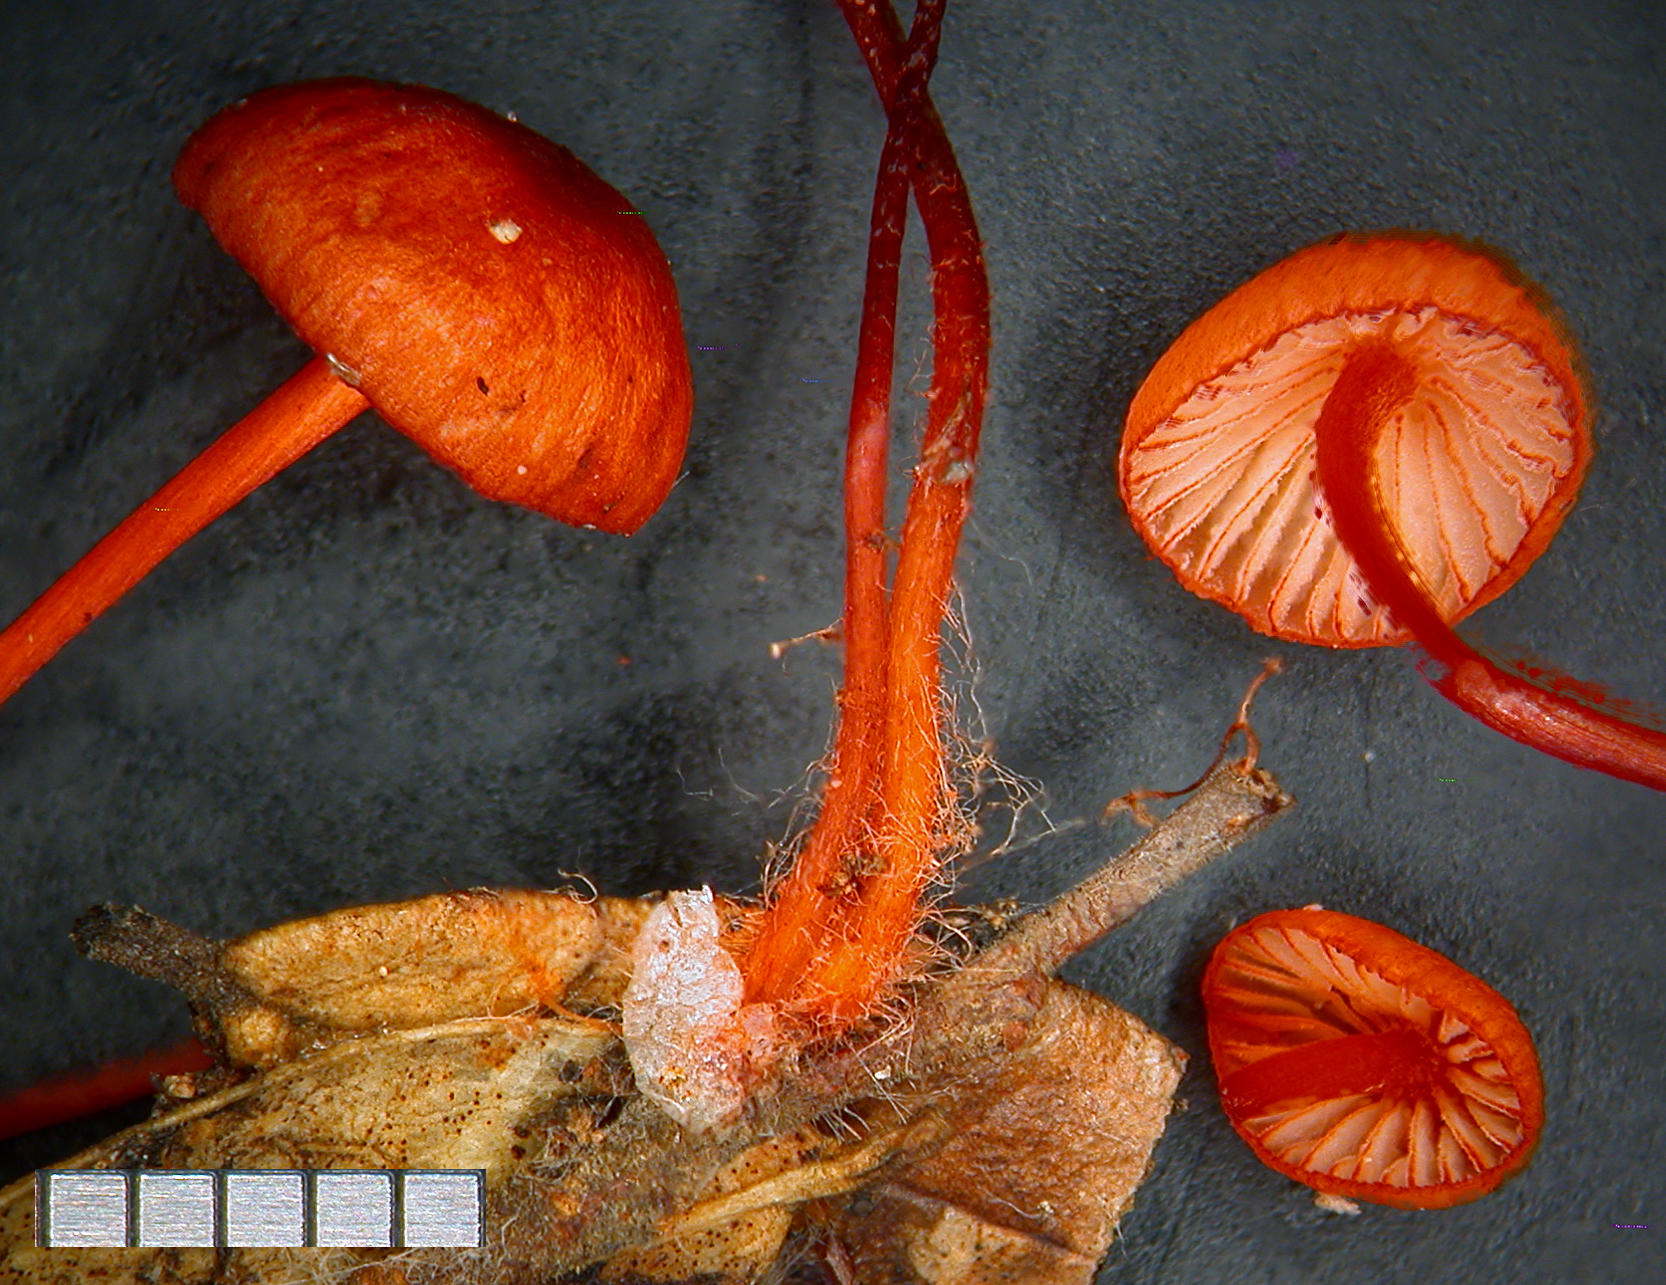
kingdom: Fungi
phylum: Basidiomycota
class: Agaricomycetes
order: Agaricales
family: Mycenaceae
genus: Mycena
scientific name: Mycena ura
